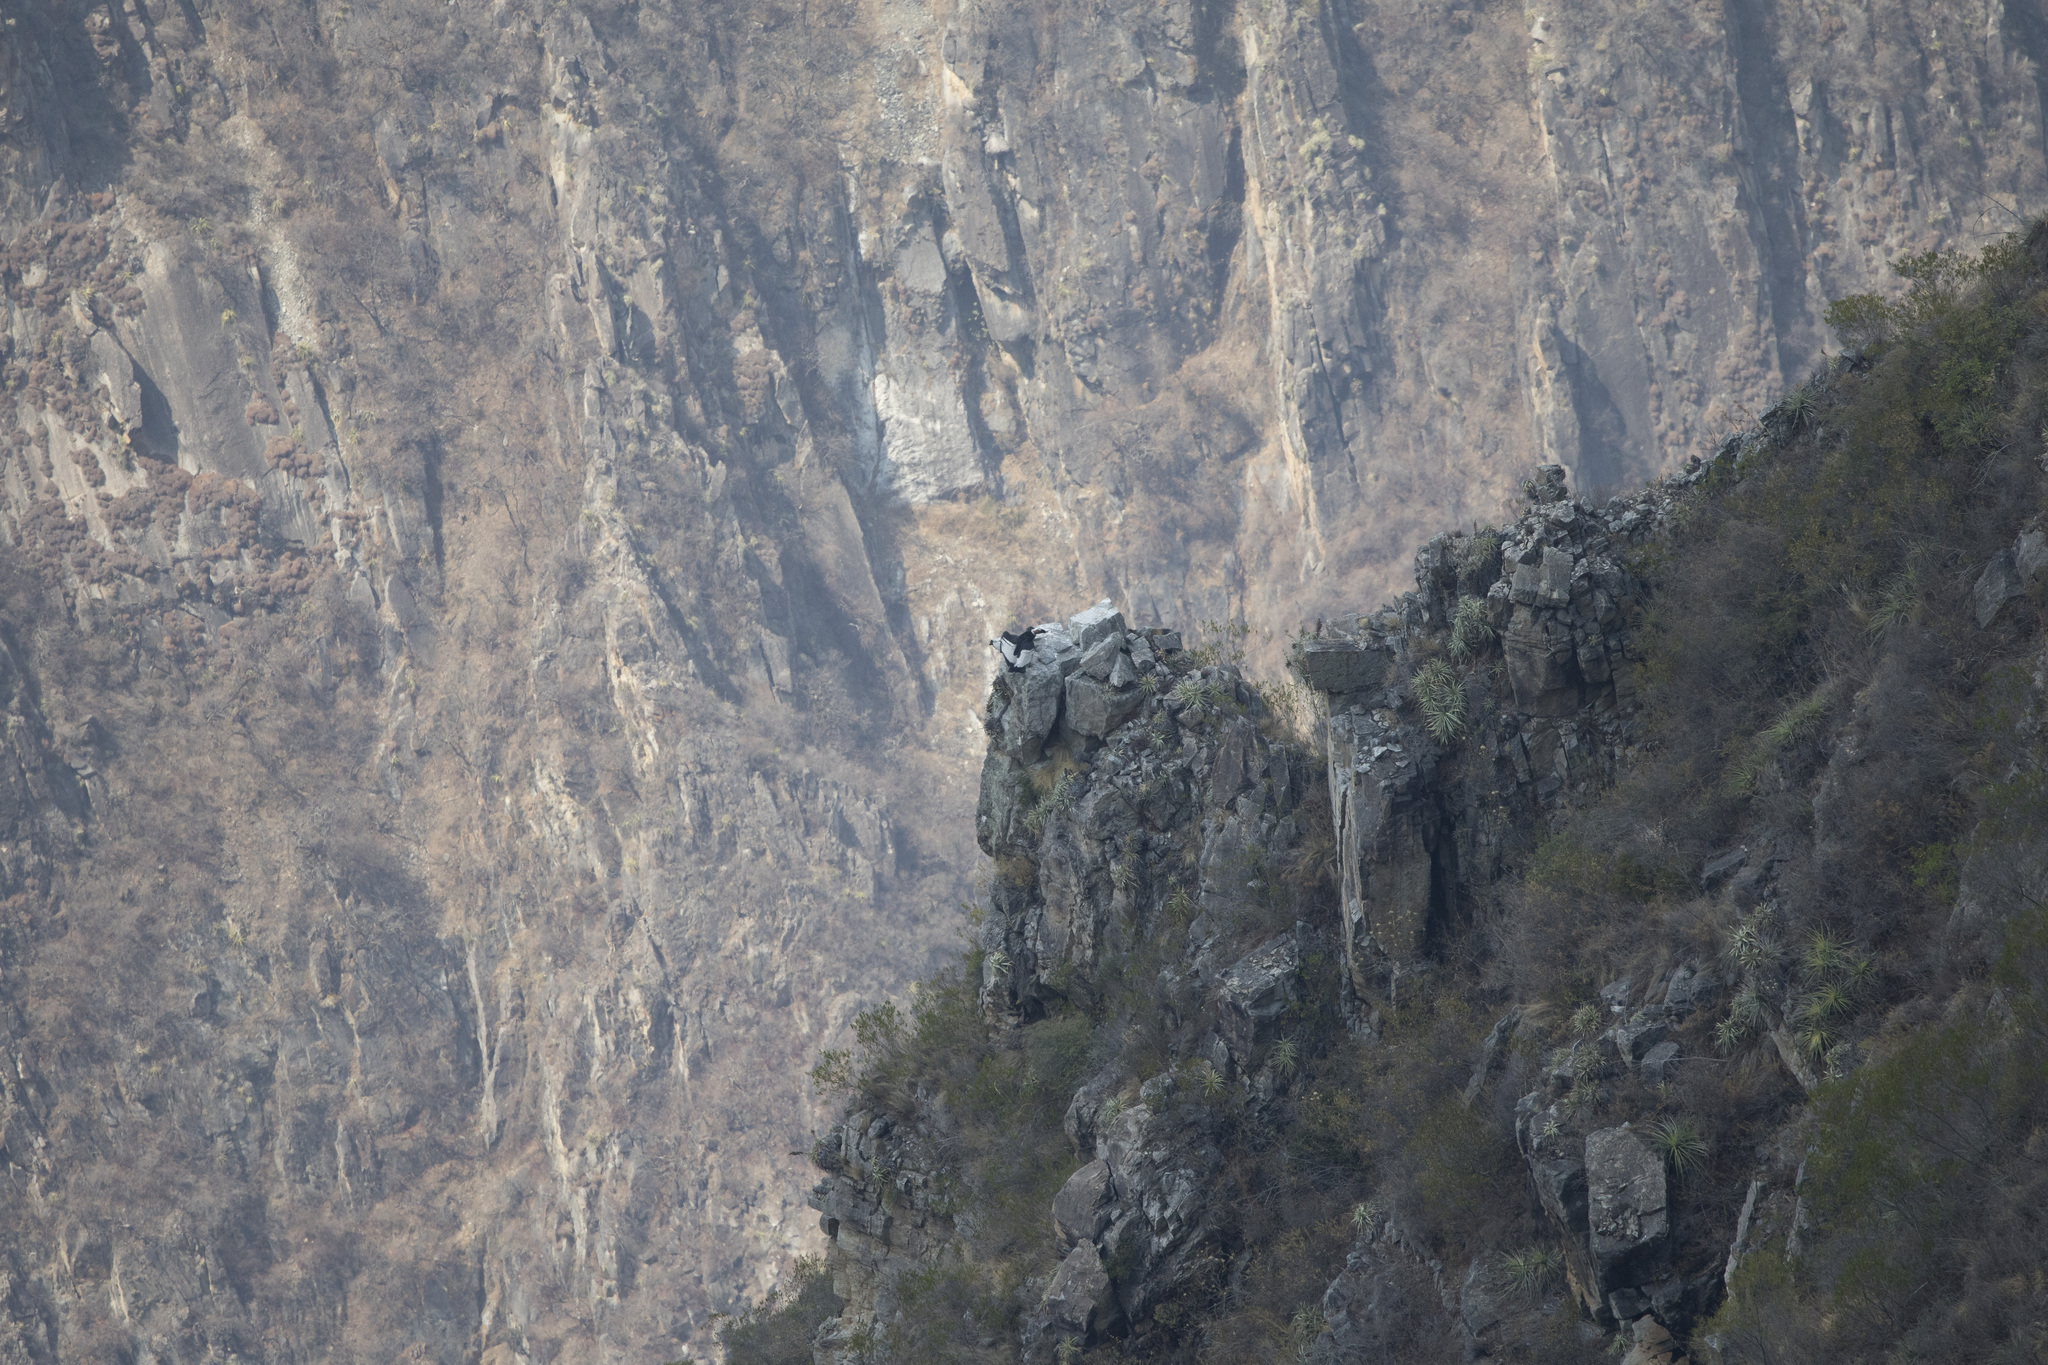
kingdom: Animalia
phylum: Chordata
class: Aves
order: Accipitriformes
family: Cathartidae
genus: Vultur
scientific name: Vultur gryphus
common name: Andean condor
